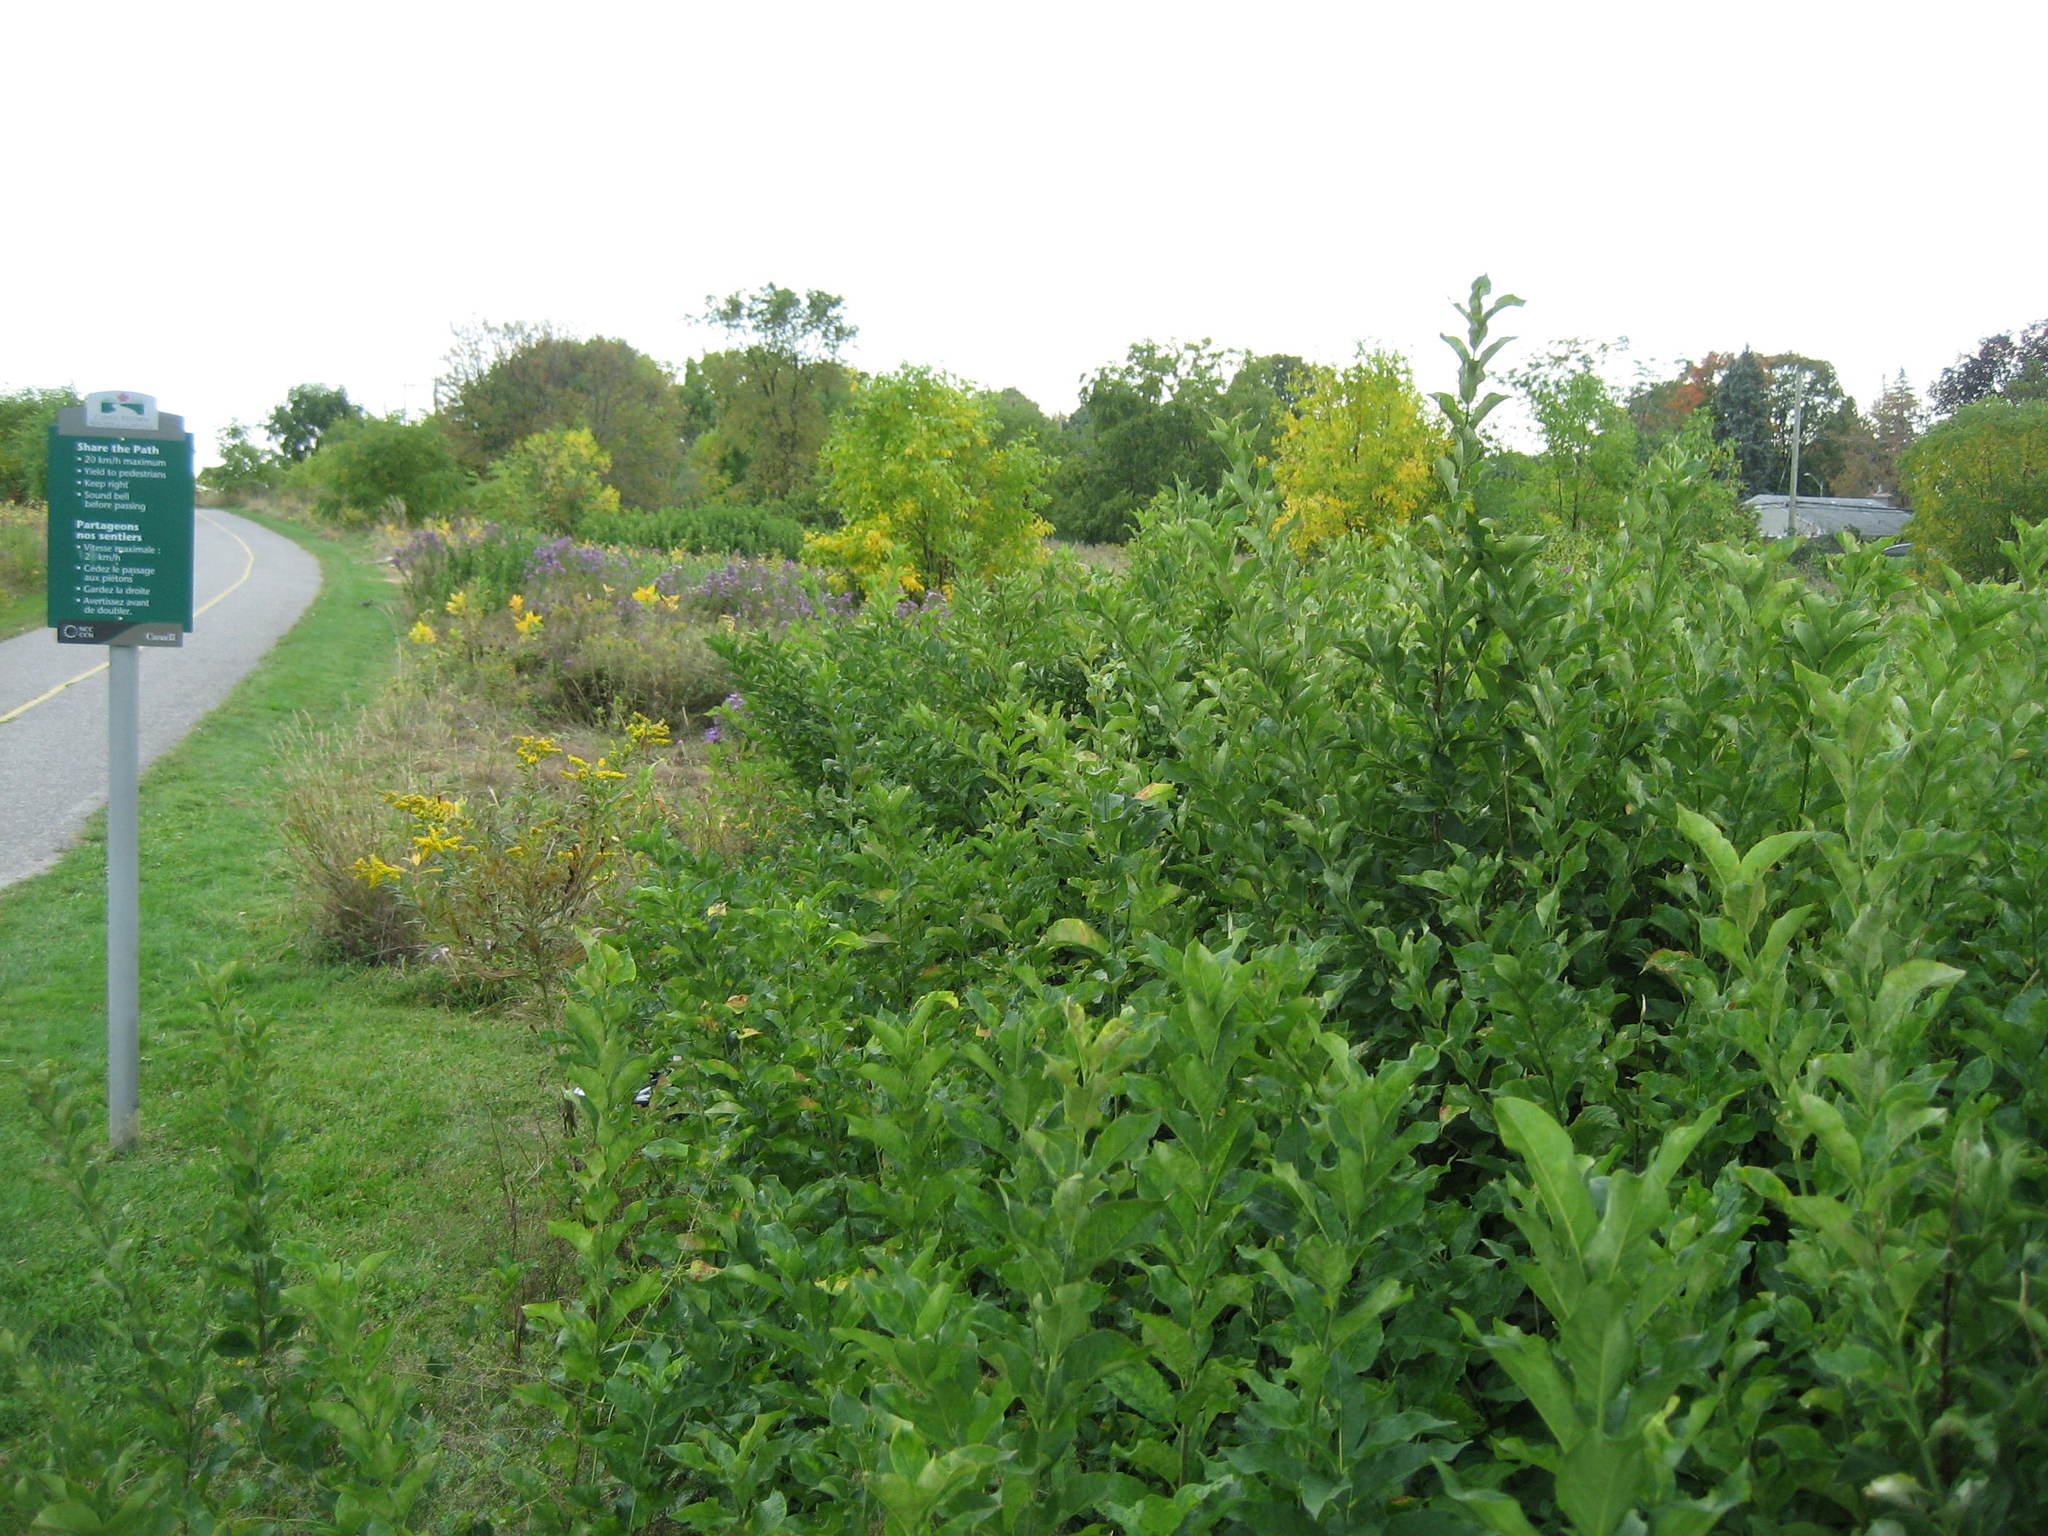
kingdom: Plantae
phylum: Tracheophyta
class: Magnoliopsida
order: Celastrales
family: Celastraceae
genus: Euonymus
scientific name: Euonymus europaeus
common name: Spindle
